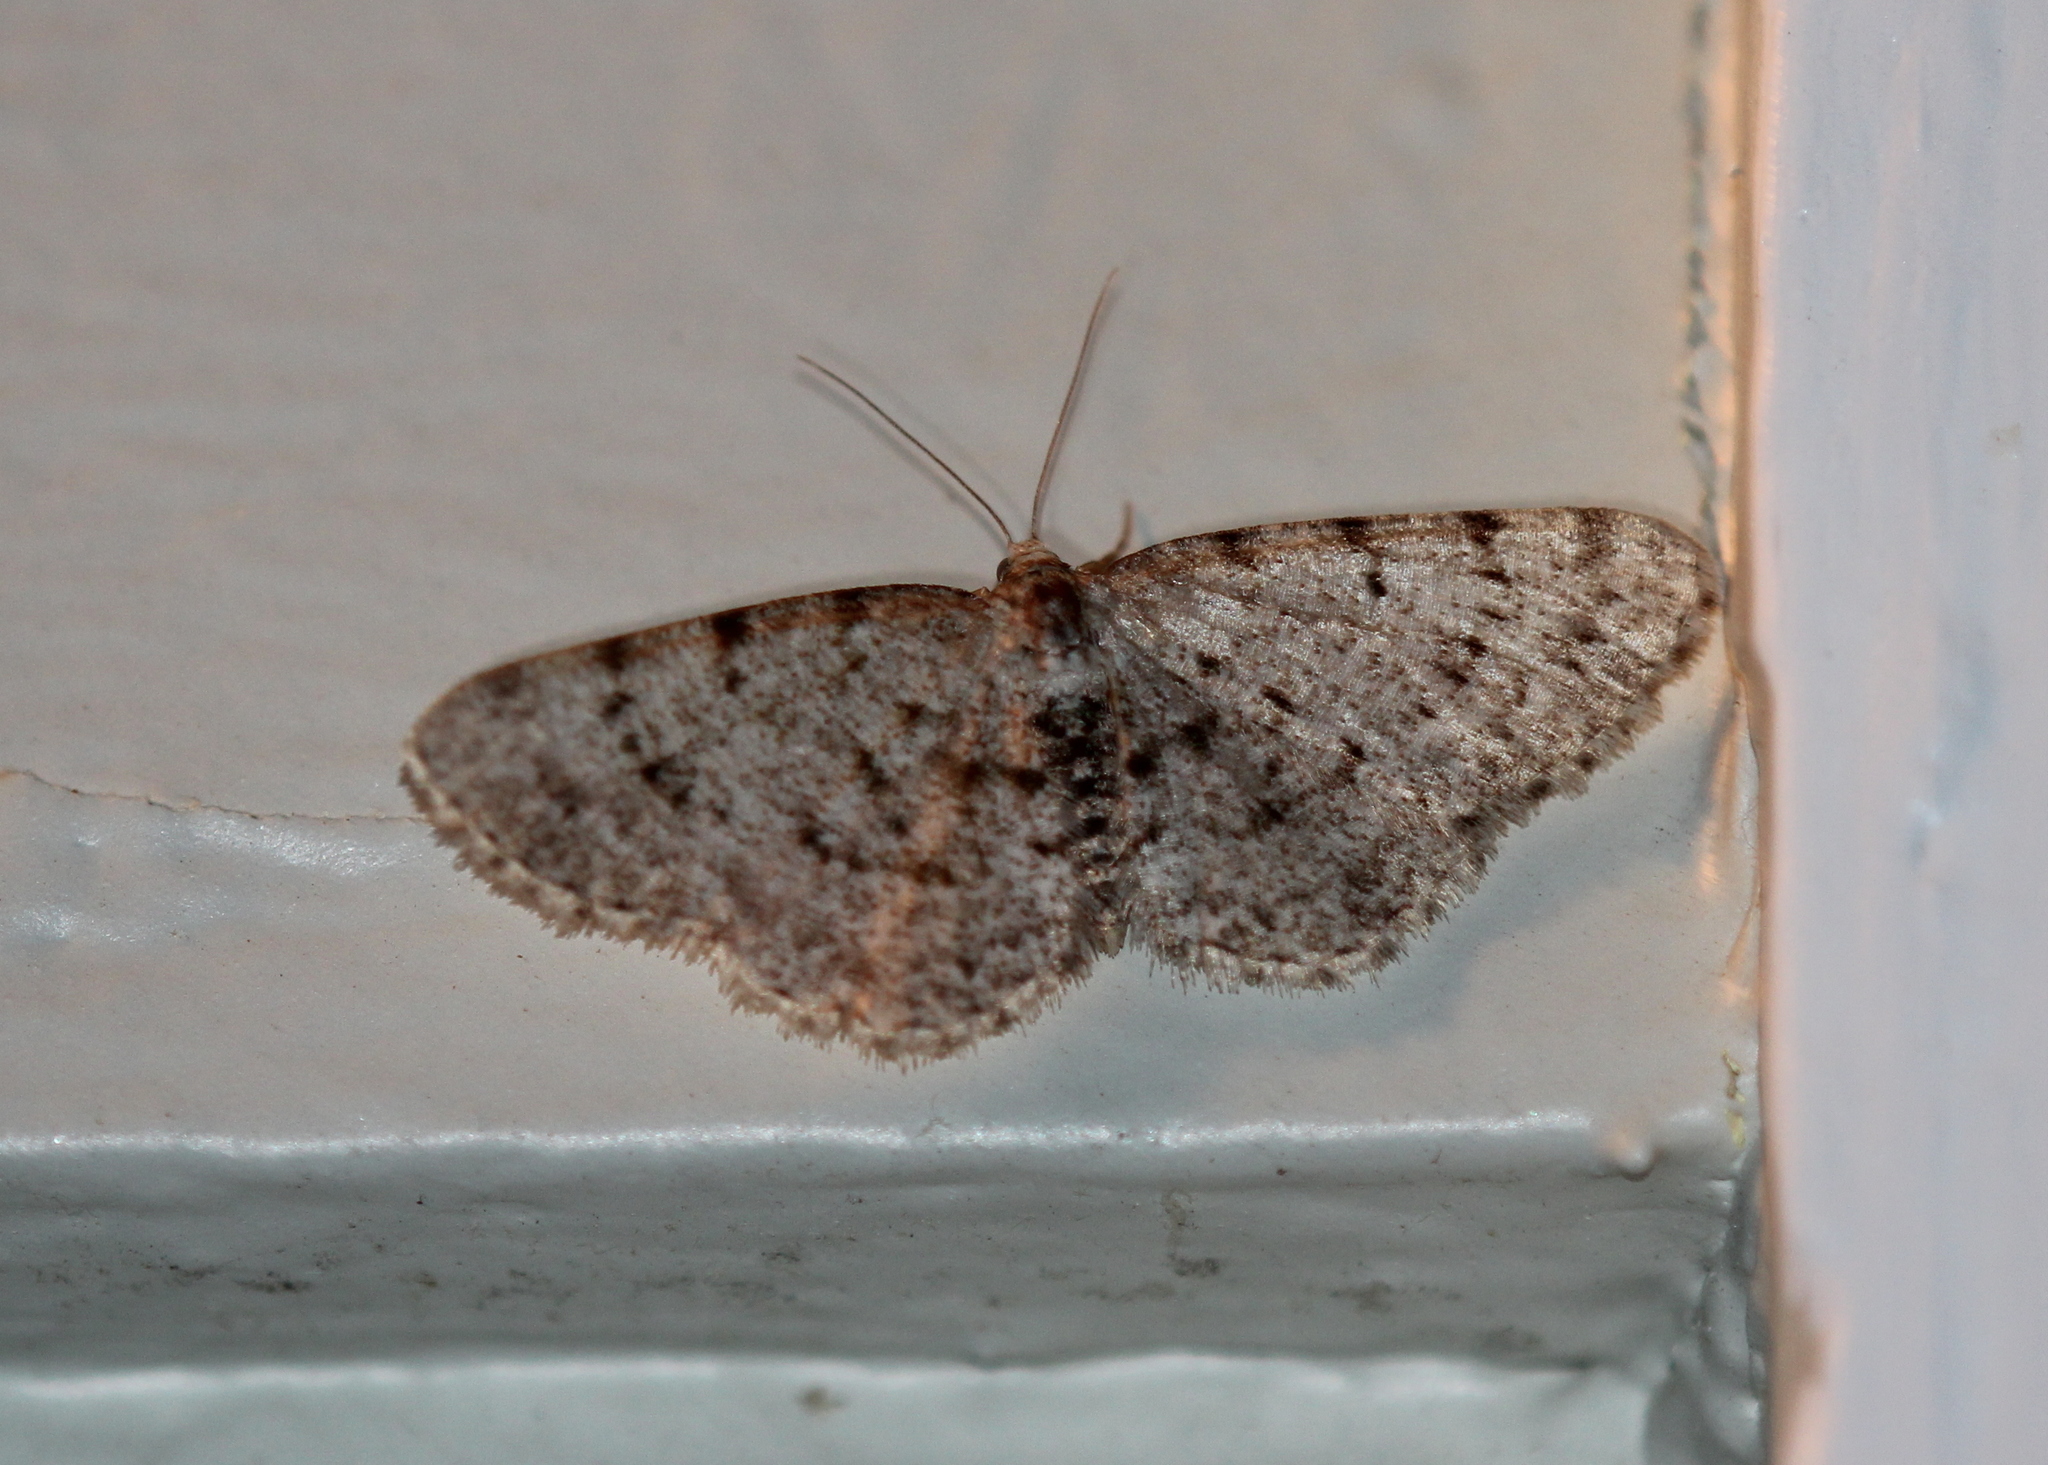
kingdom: Animalia
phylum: Arthropoda
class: Insecta
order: Lepidoptera
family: Geometridae
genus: Aethalura
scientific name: Aethalura intertexta
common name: Four-barred gray
